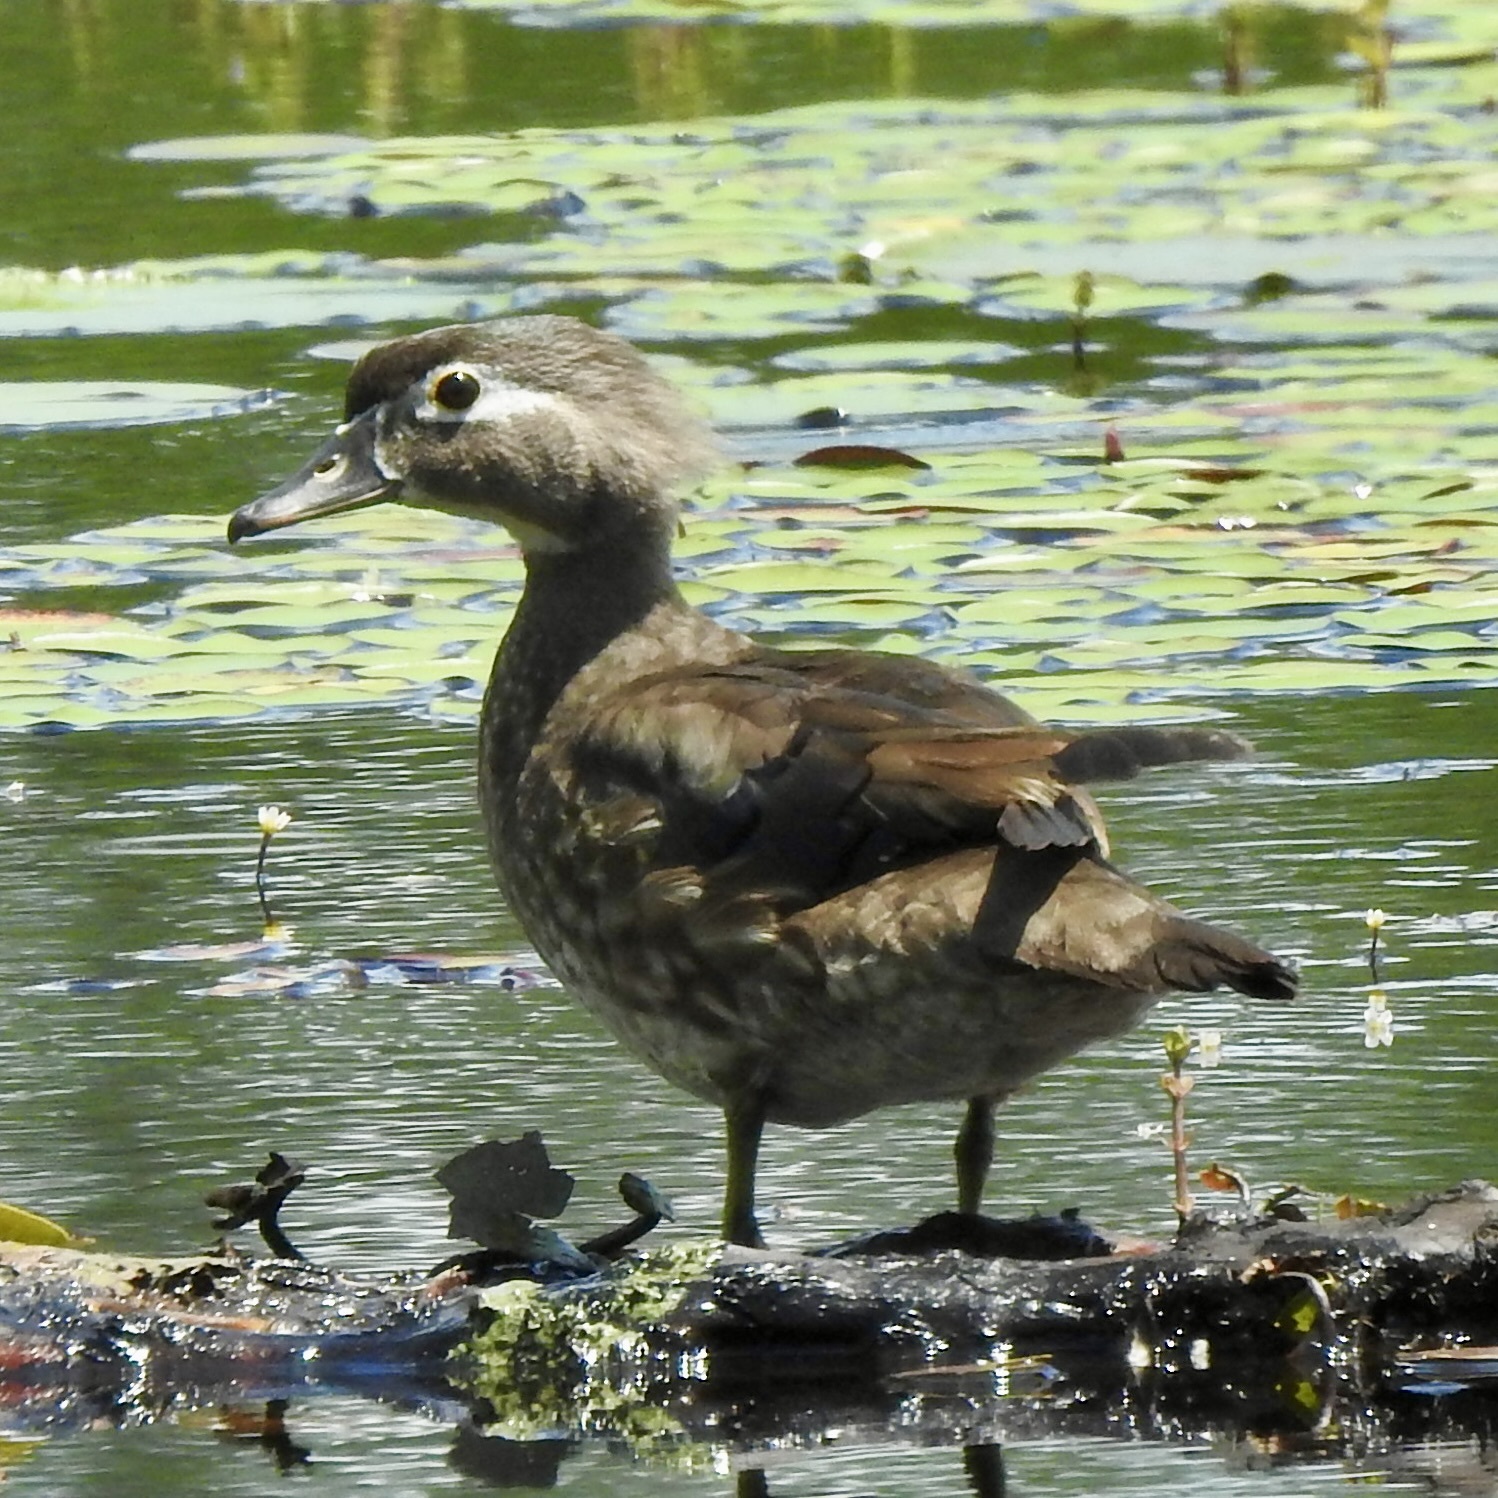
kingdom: Animalia
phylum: Chordata
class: Aves
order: Anseriformes
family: Anatidae
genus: Aix
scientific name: Aix sponsa
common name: Wood duck
